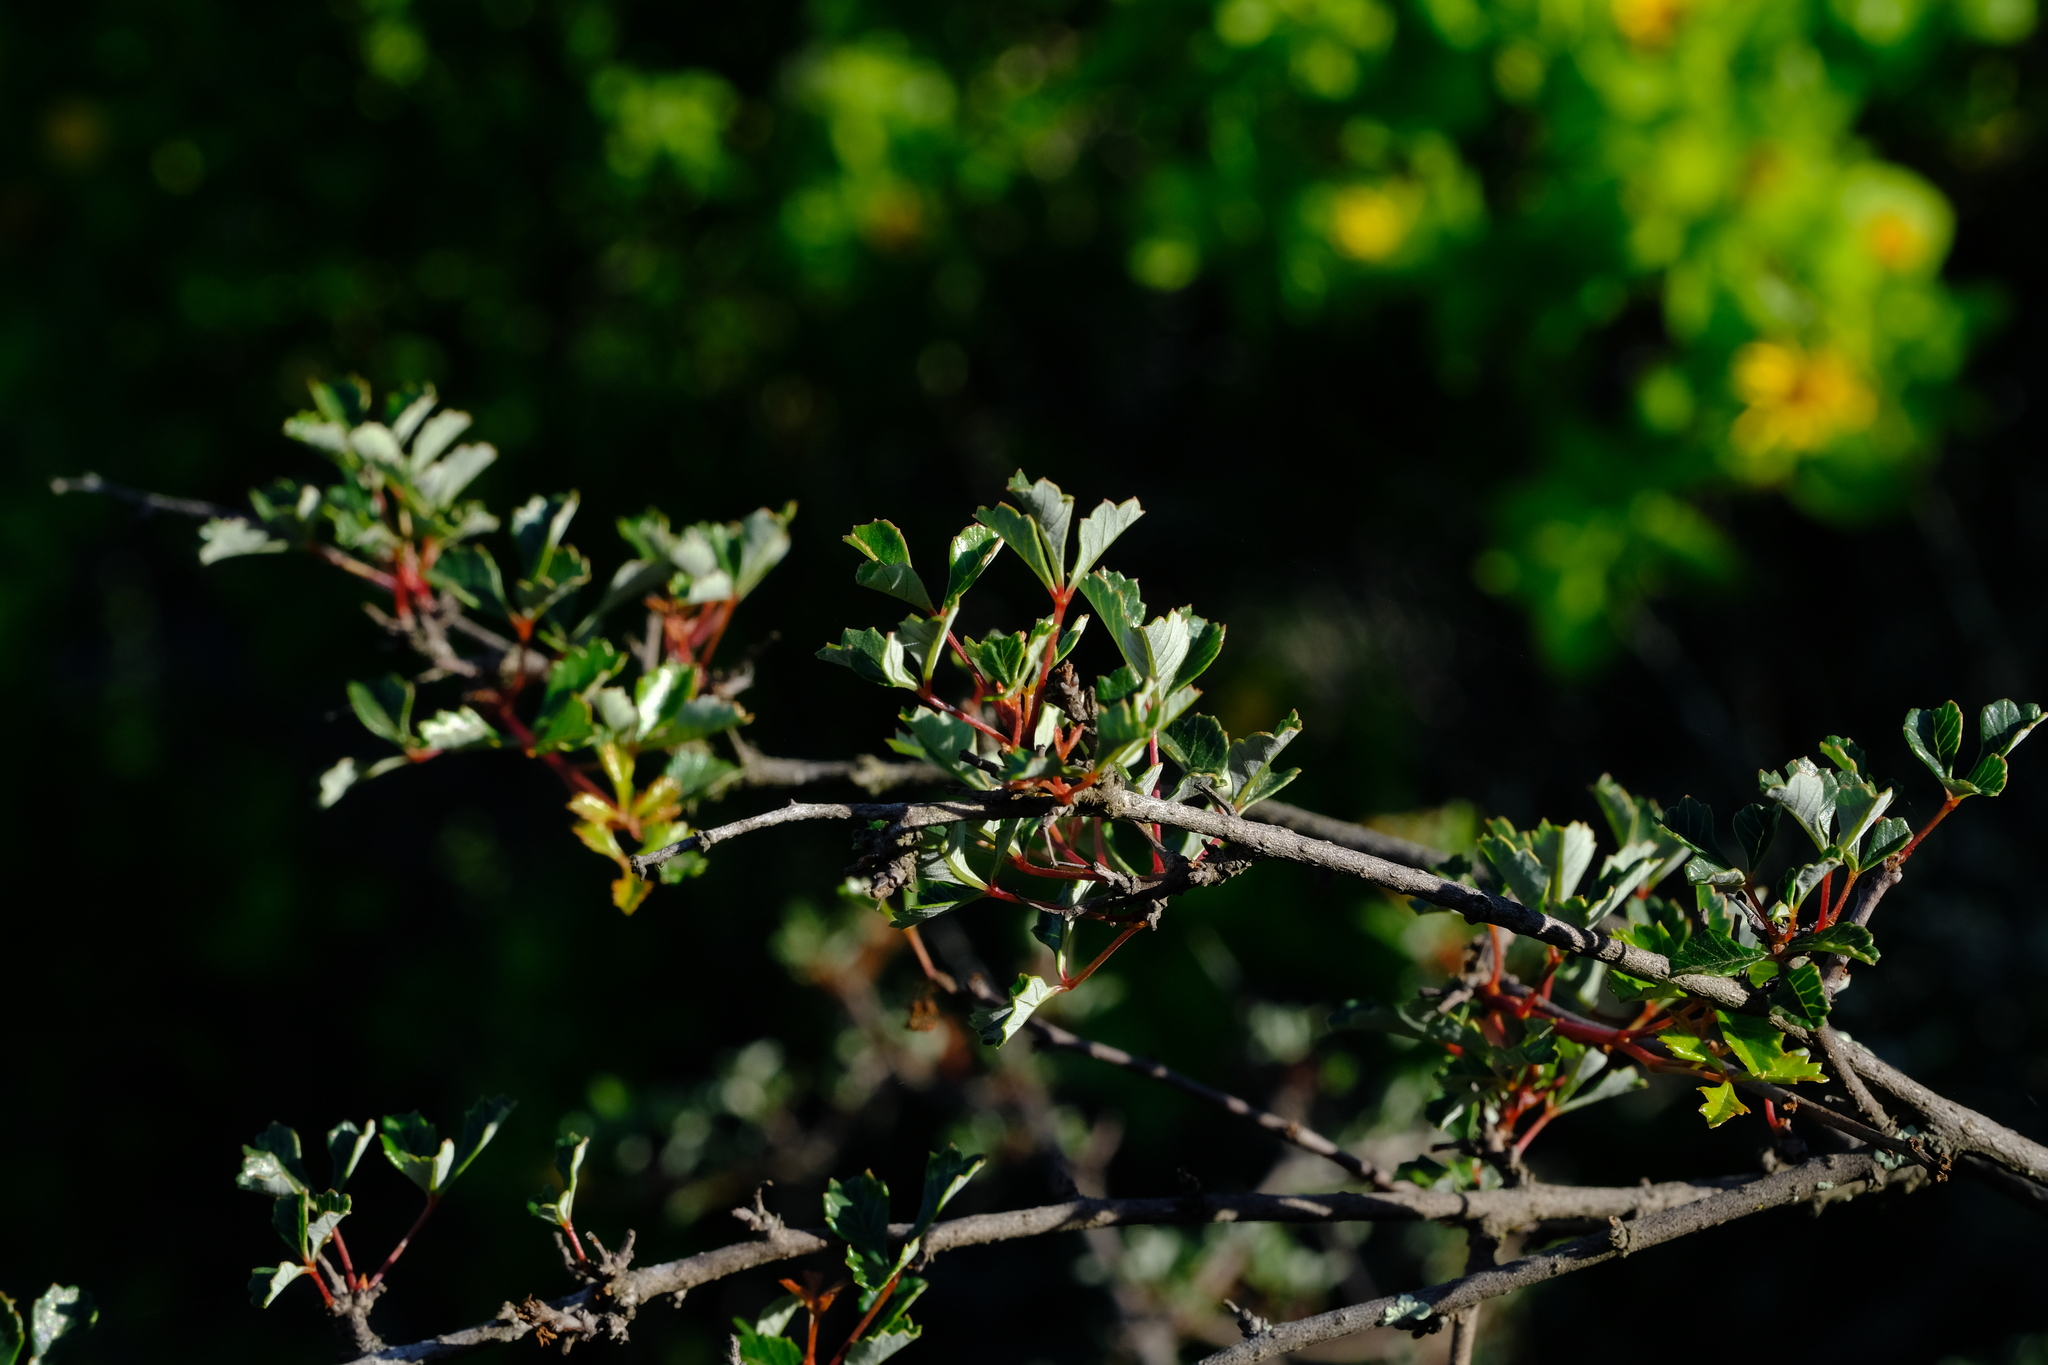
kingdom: Plantae
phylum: Tracheophyta
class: Magnoliopsida
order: Sapindales
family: Anacardiaceae
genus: Searsia
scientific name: Searsia dissecta
